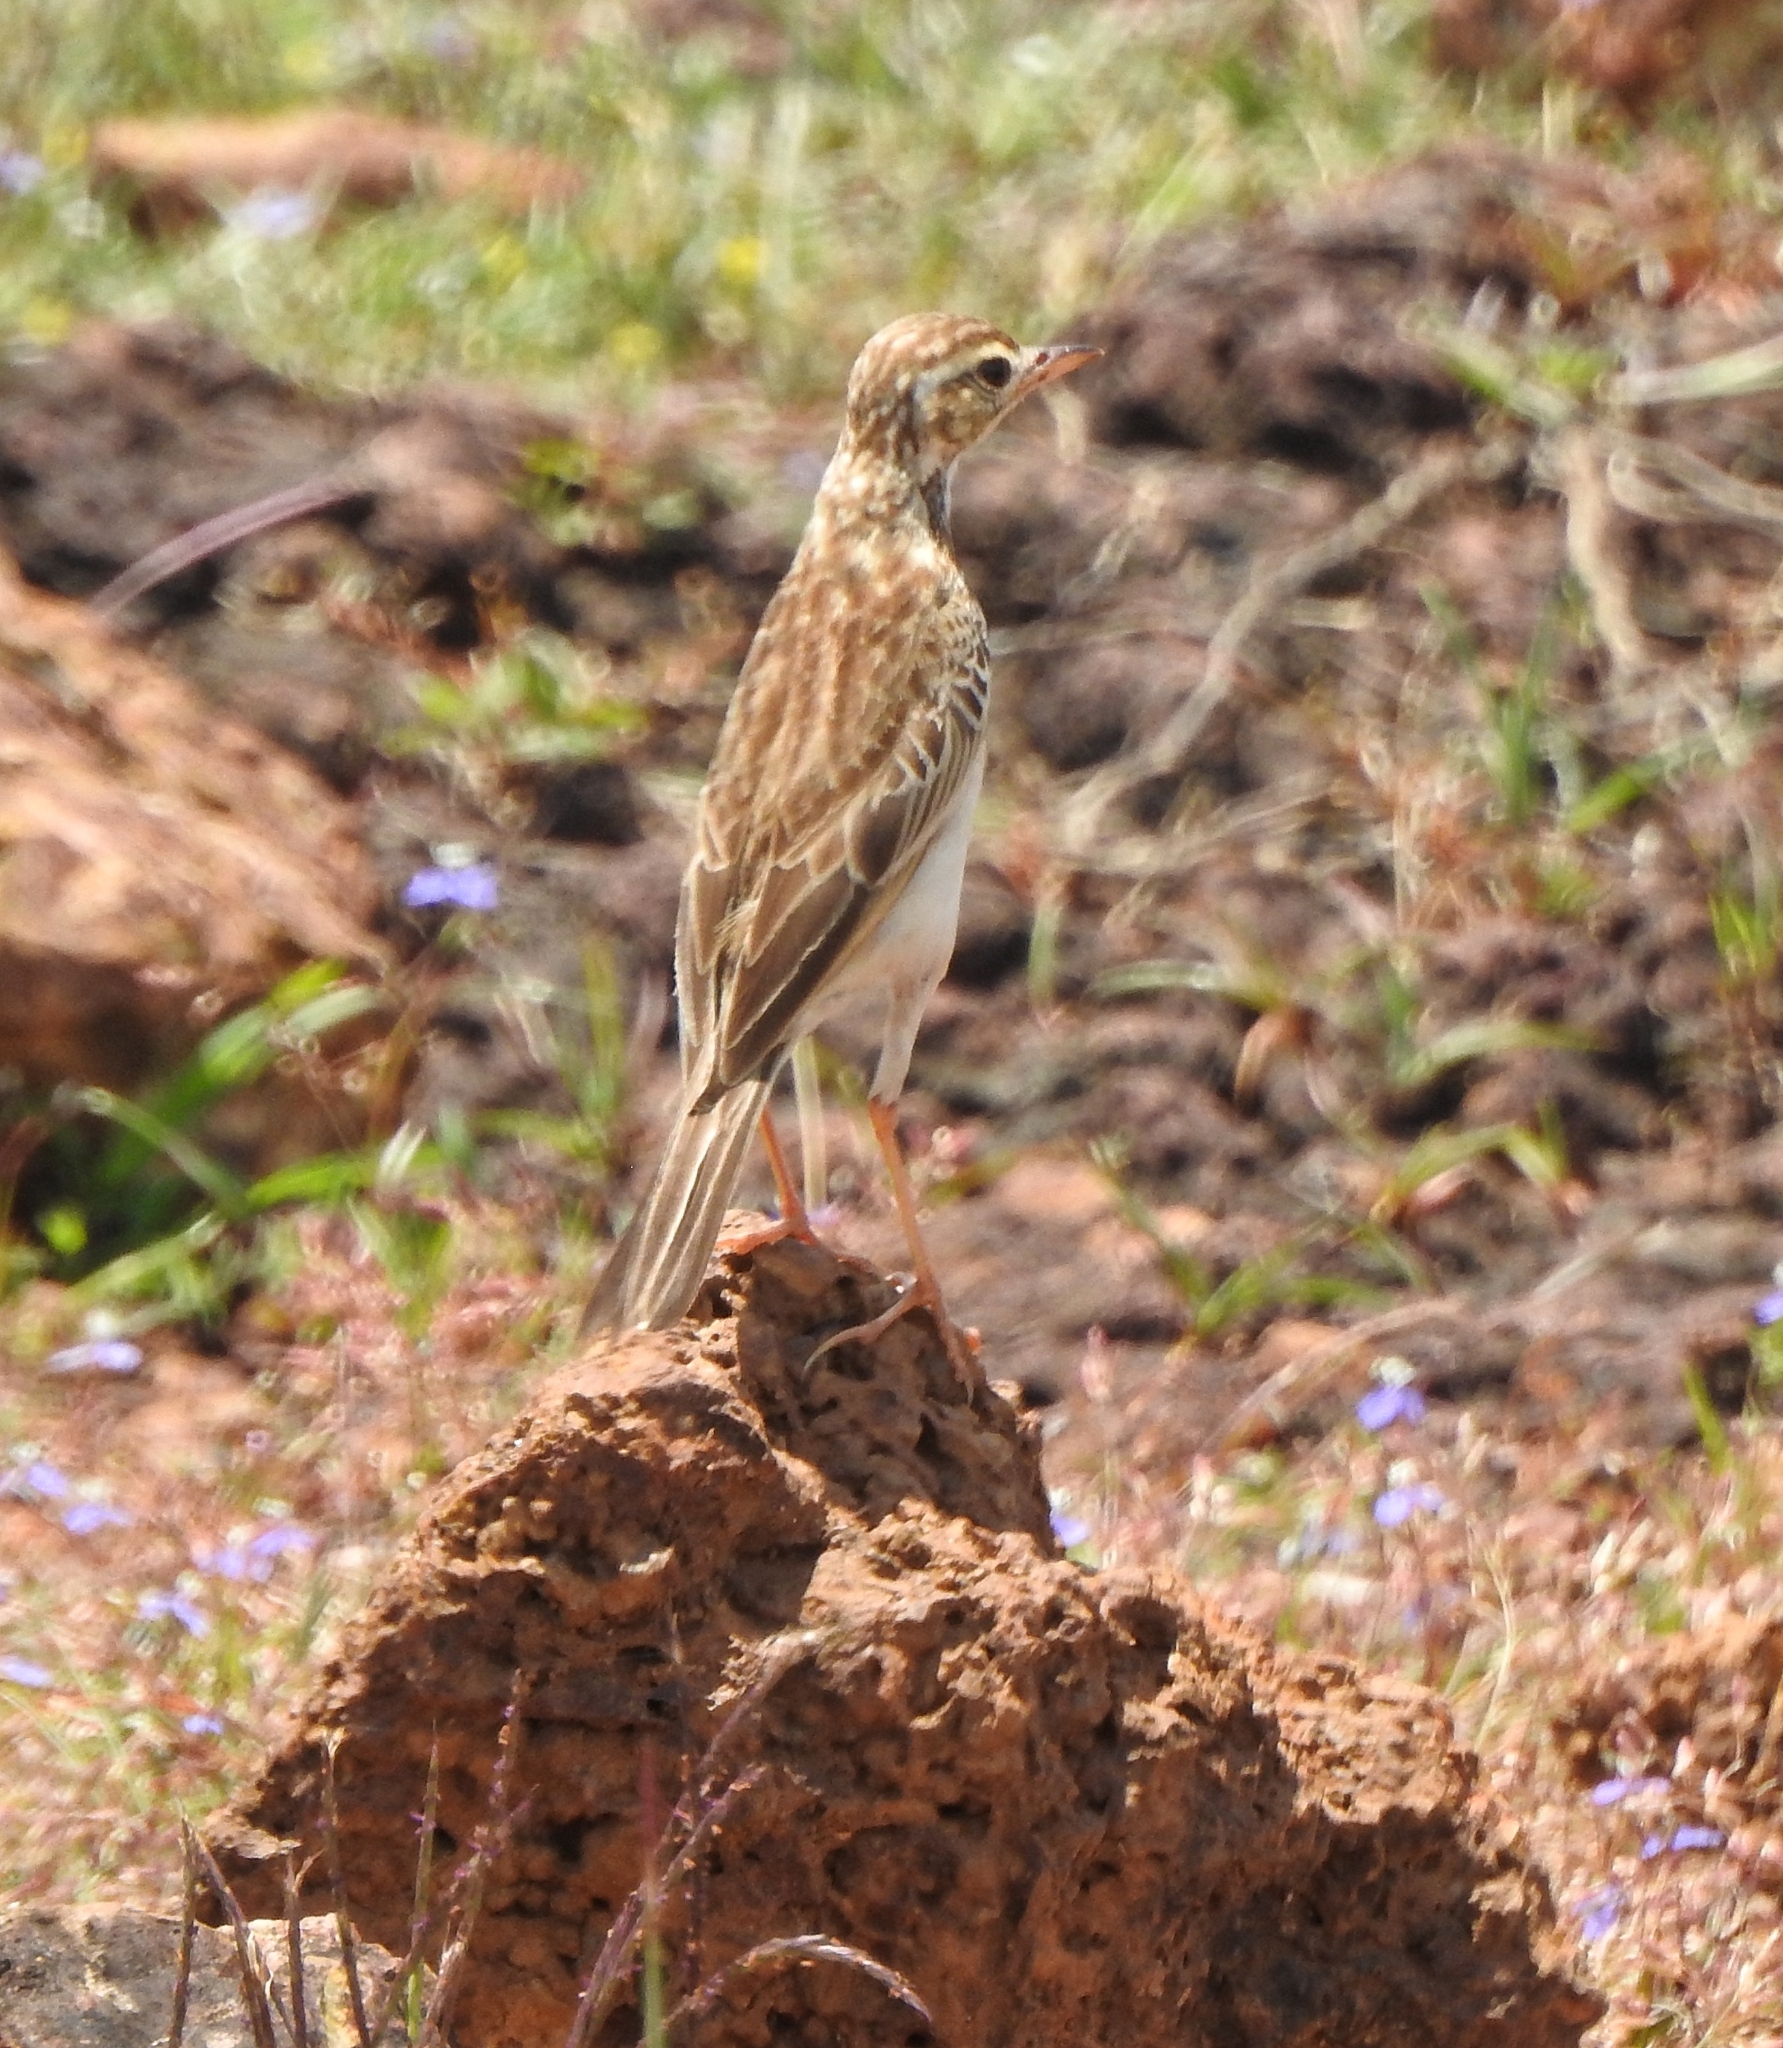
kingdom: Animalia
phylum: Chordata
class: Aves
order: Passeriformes
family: Motacillidae
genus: Anthus
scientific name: Anthus rufulus
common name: Paddyfield pipit
